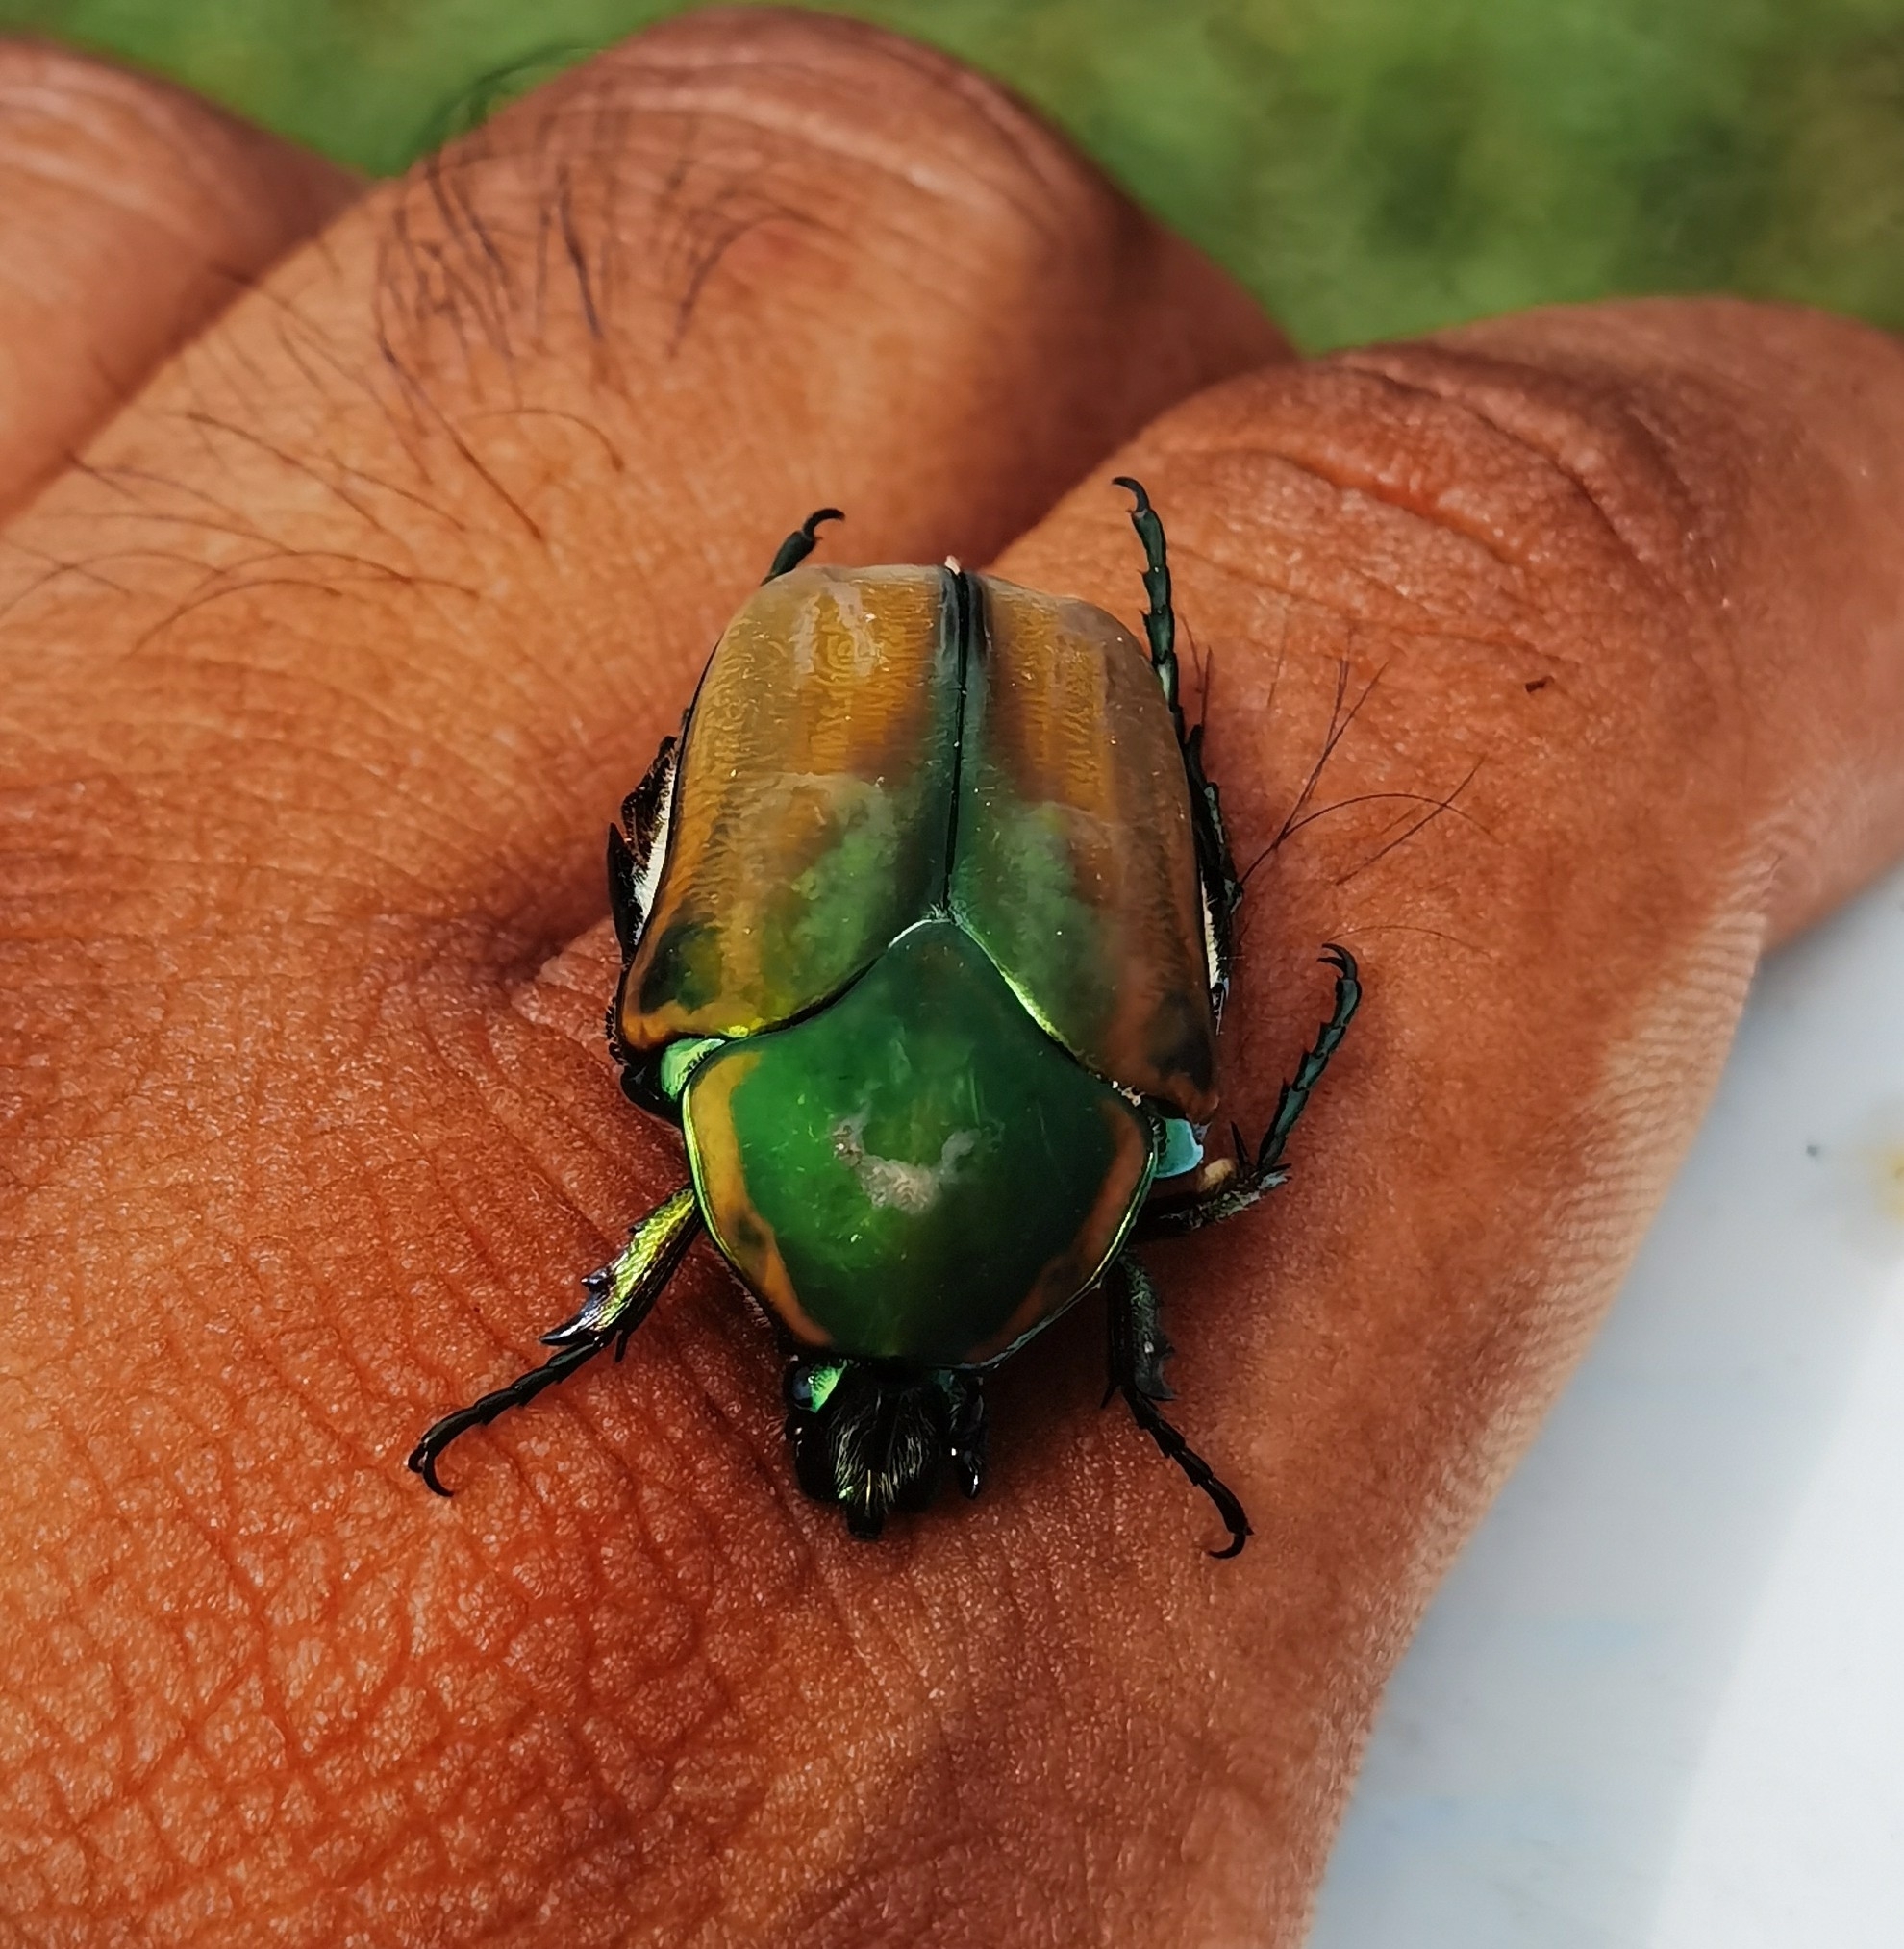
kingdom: Animalia
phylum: Arthropoda
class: Insecta
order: Coleoptera
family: Scarabaeidae
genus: Cotinis
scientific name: Cotinis mutabilis
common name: Figeater beetle
